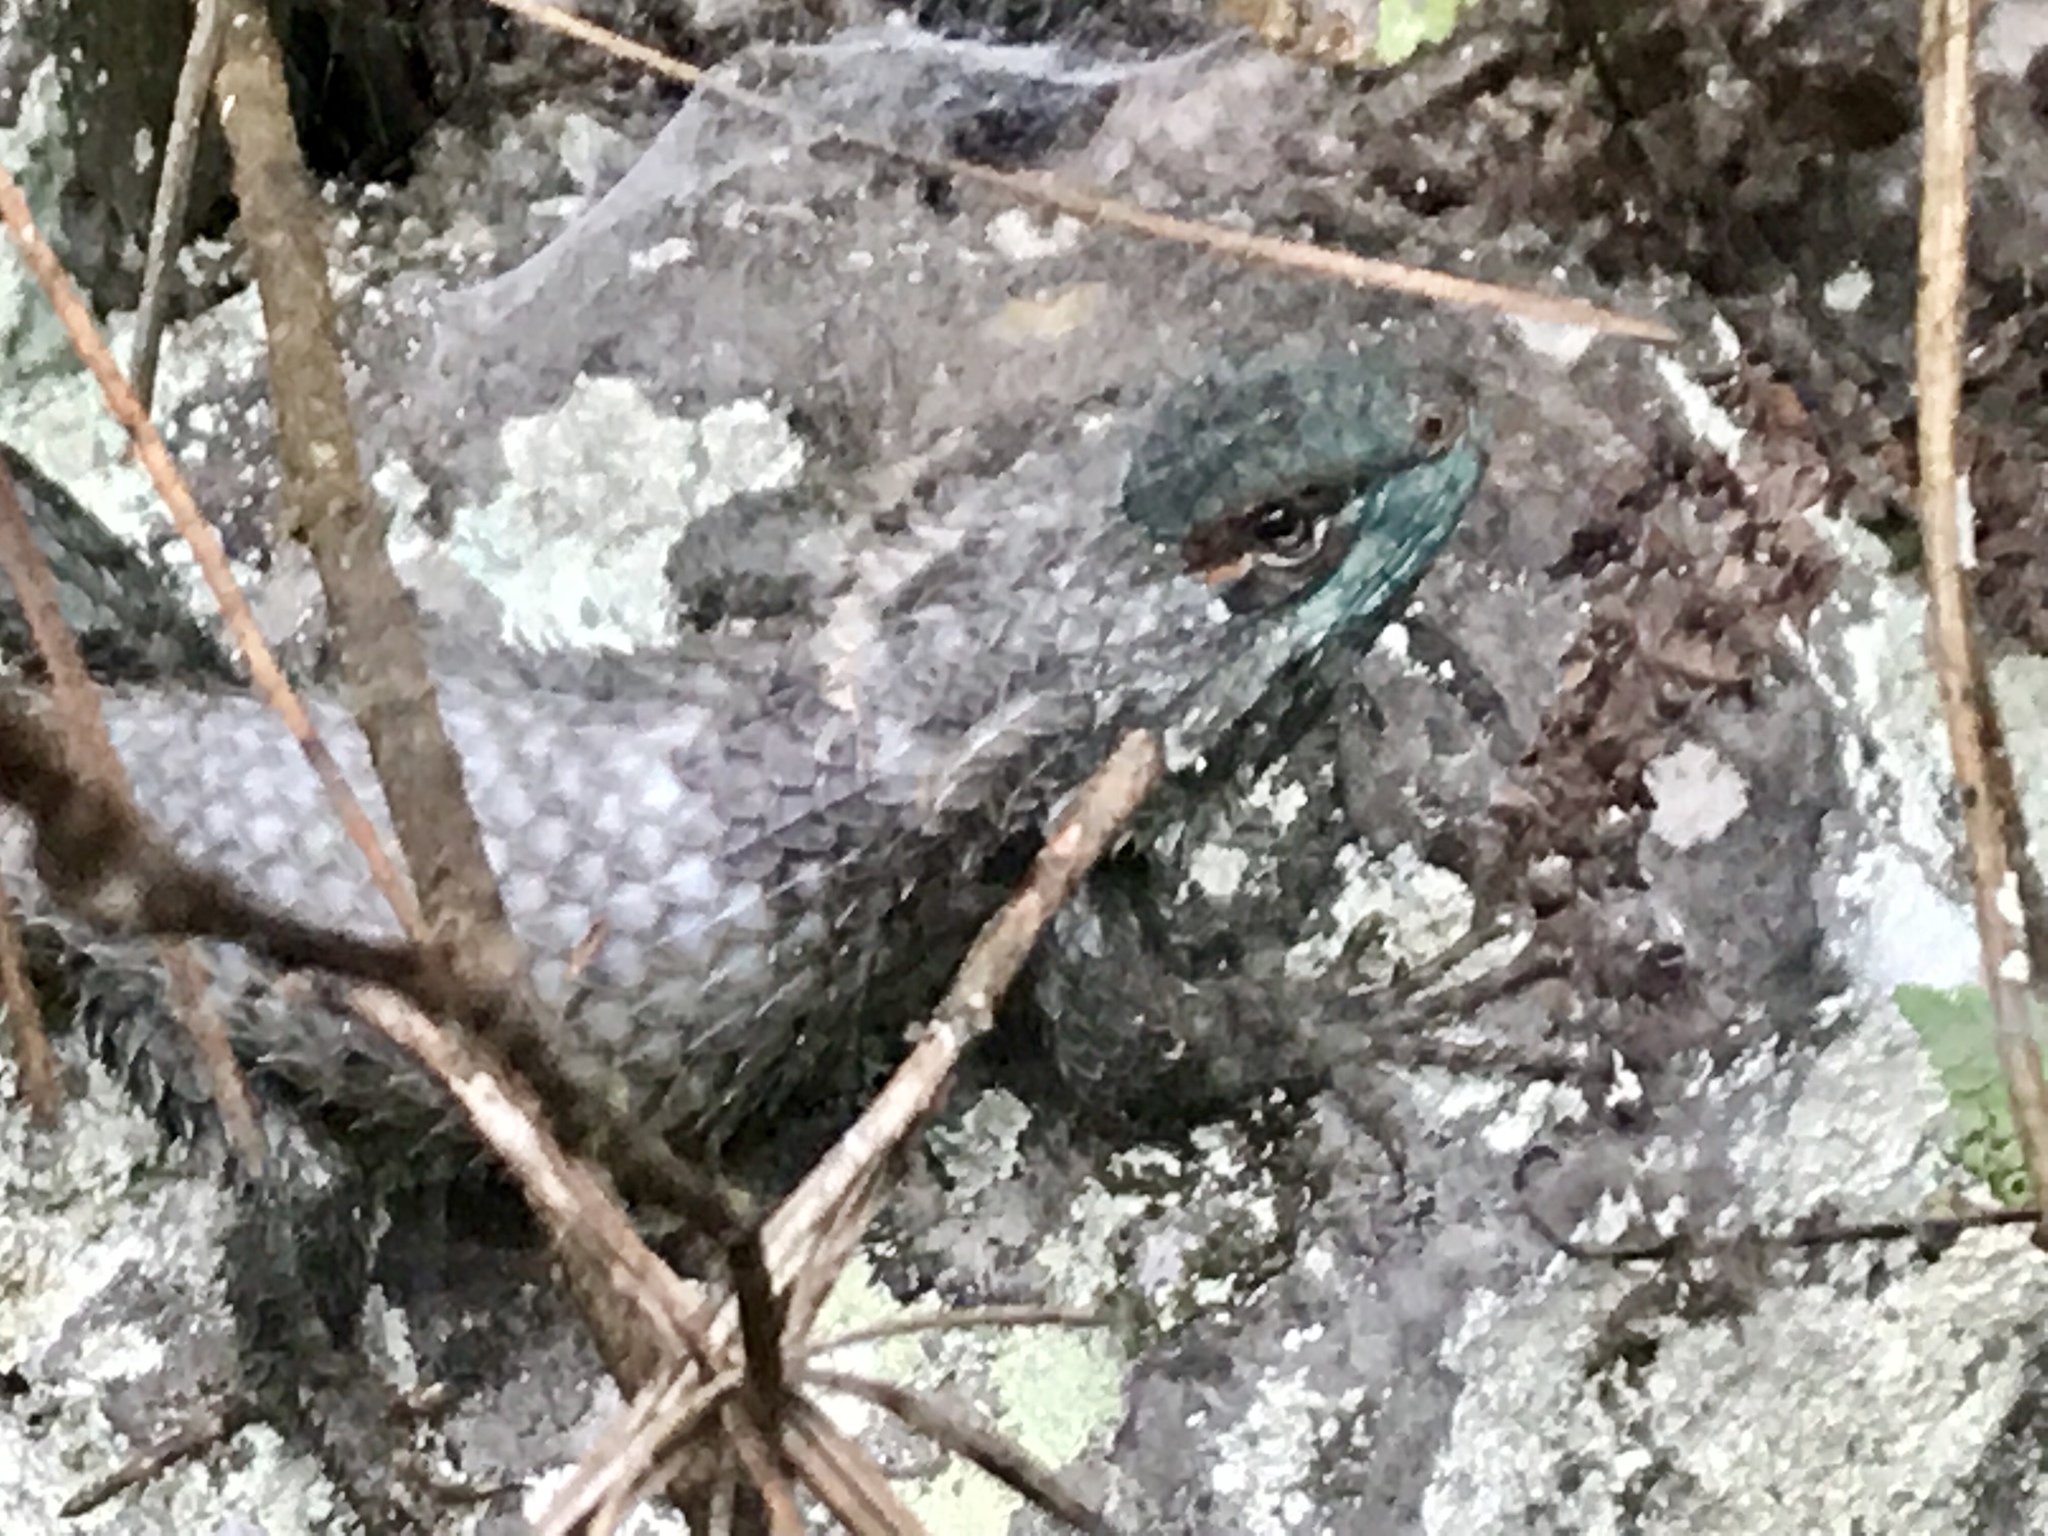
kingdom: Animalia
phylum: Chordata
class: Squamata
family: Phrynosomatidae
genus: Sceloporus
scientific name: Sceloporus torquatus
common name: Central plateau torquate lizard [melanogaster]
